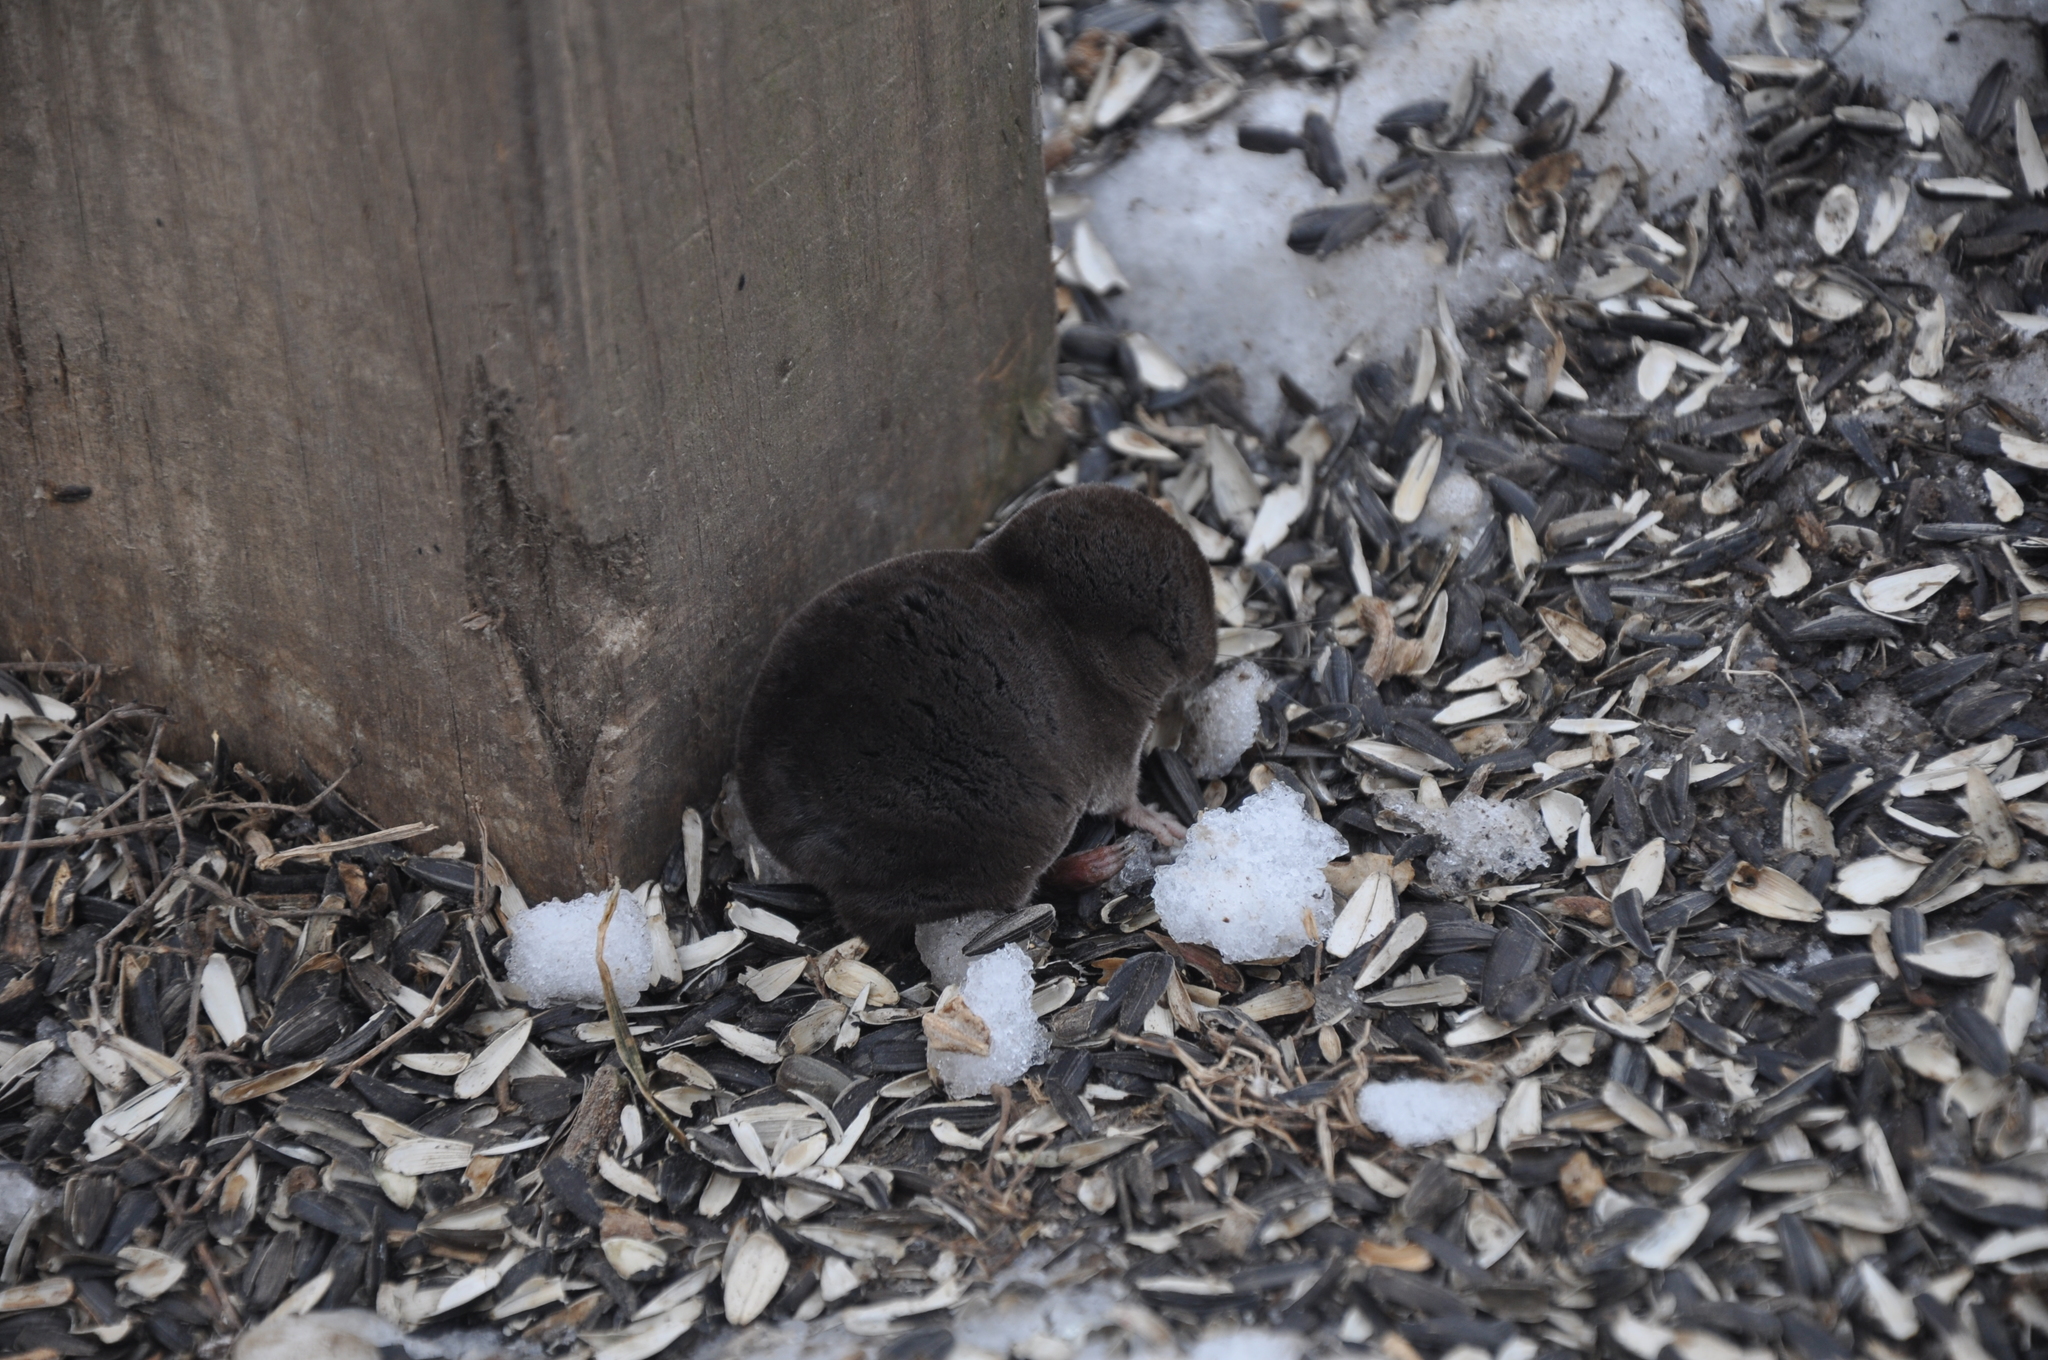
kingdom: Animalia
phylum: Chordata
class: Mammalia
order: Soricomorpha
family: Soricidae
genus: Blarina
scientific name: Blarina brevicauda
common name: Northern short-tailed shrew
